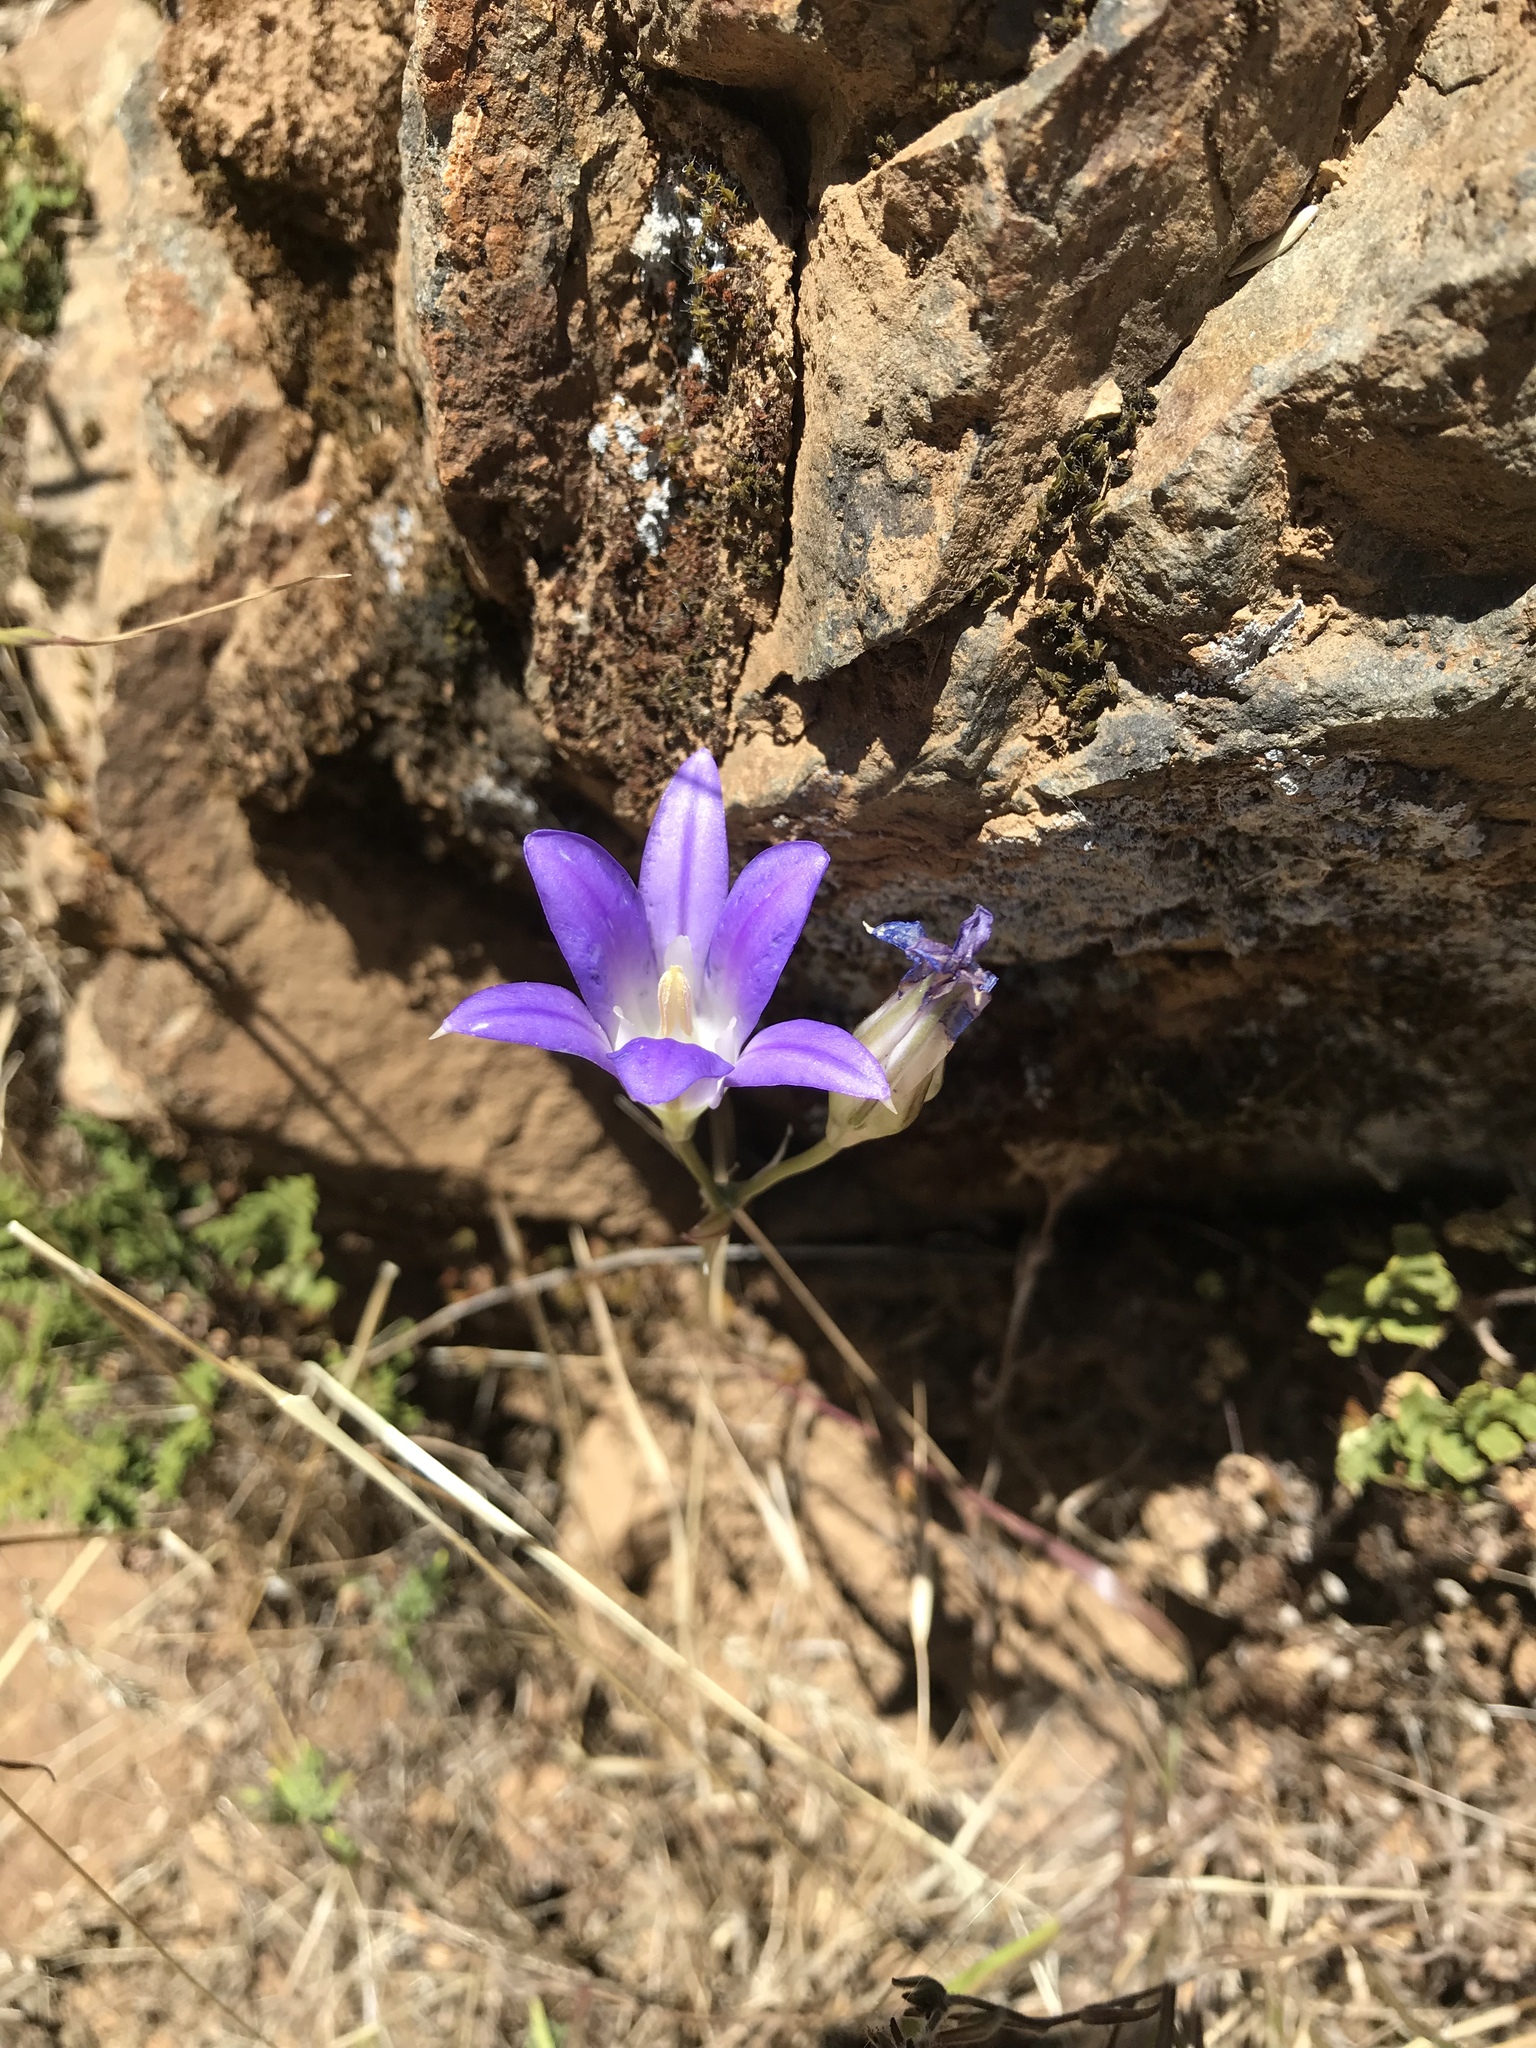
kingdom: Plantae
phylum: Tracheophyta
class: Liliopsida
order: Asparagales
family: Asparagaceae
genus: Brodiaea
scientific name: Brodiaea elegans
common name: Elegant cluster-lily
